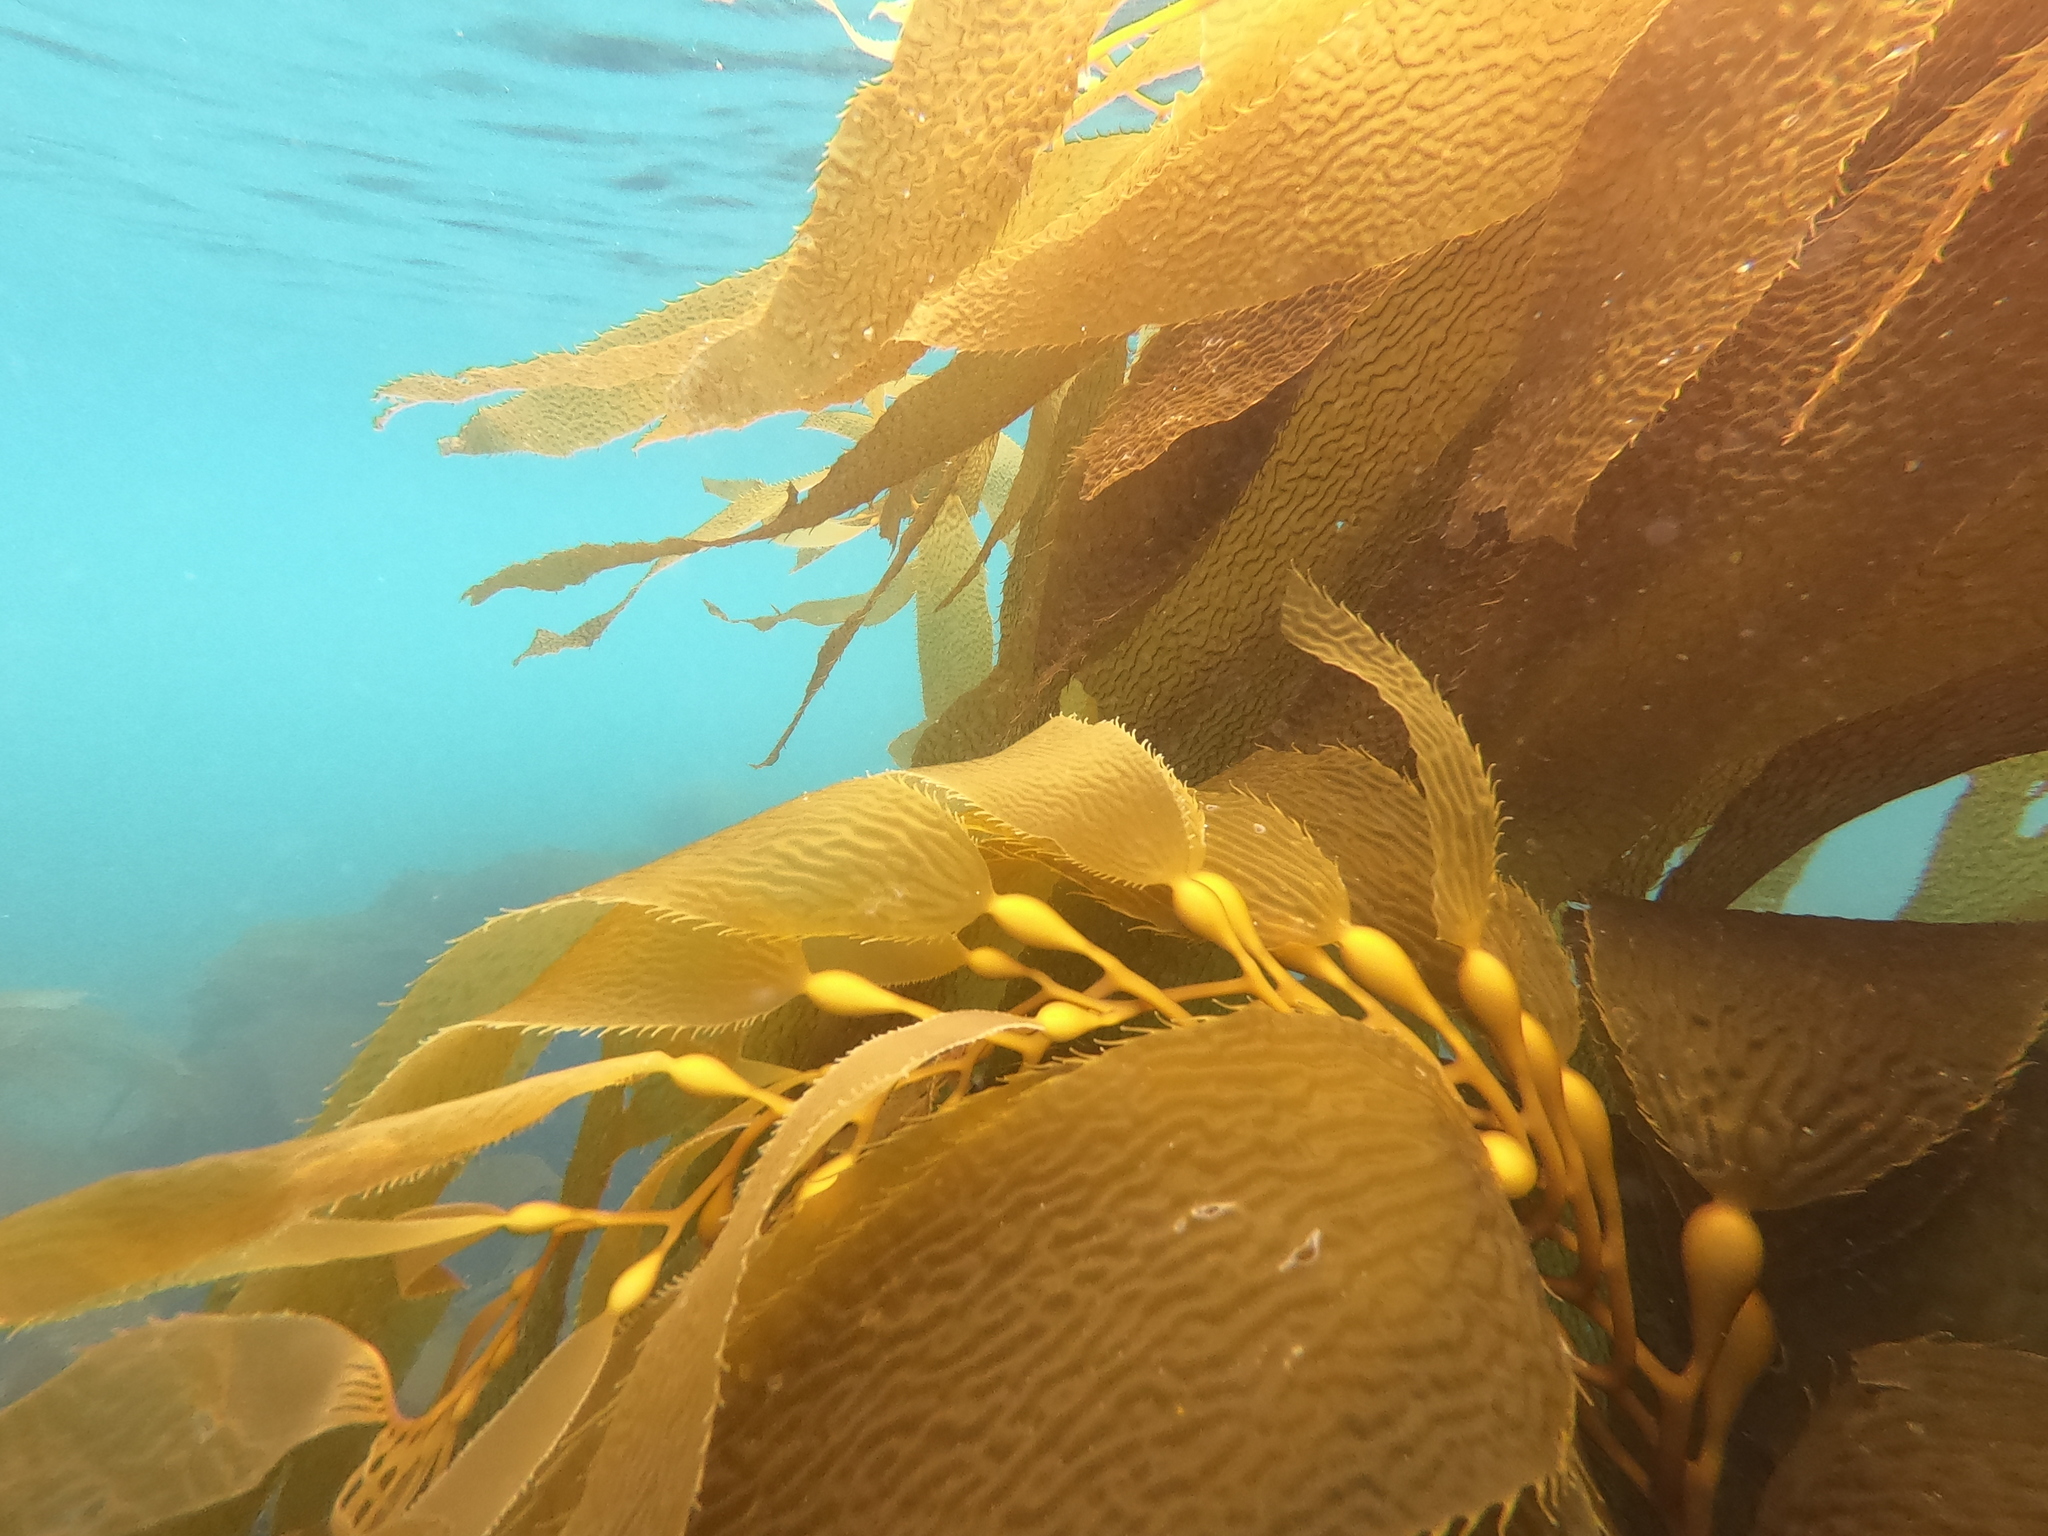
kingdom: Chromista
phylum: Ochrophyta
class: Phaeophyceae
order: Laminariales
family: Laminariaceae
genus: Macrocystis
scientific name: Macrocystis pyrifera
